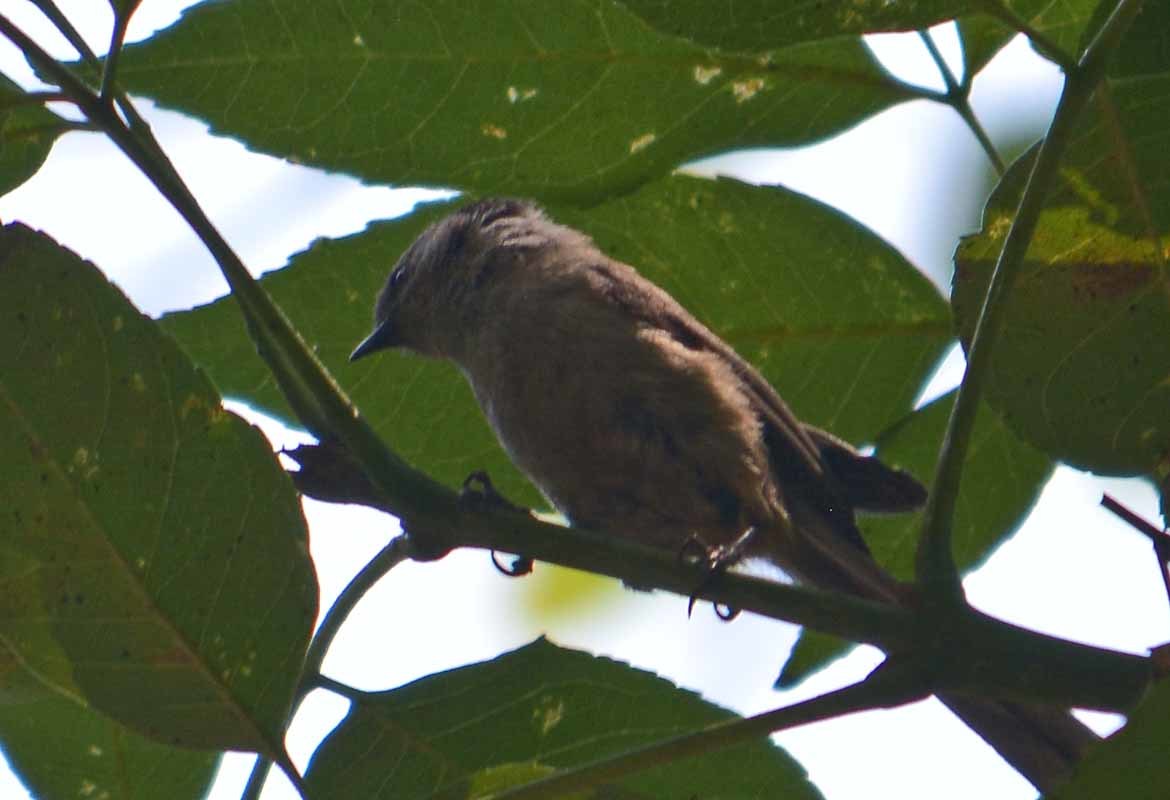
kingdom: Animalia
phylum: Chordata
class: Aves
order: Passeriformes
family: Aegithalidae
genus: Psaltriparus
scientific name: Psaltriparus minimus
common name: American bushtit
